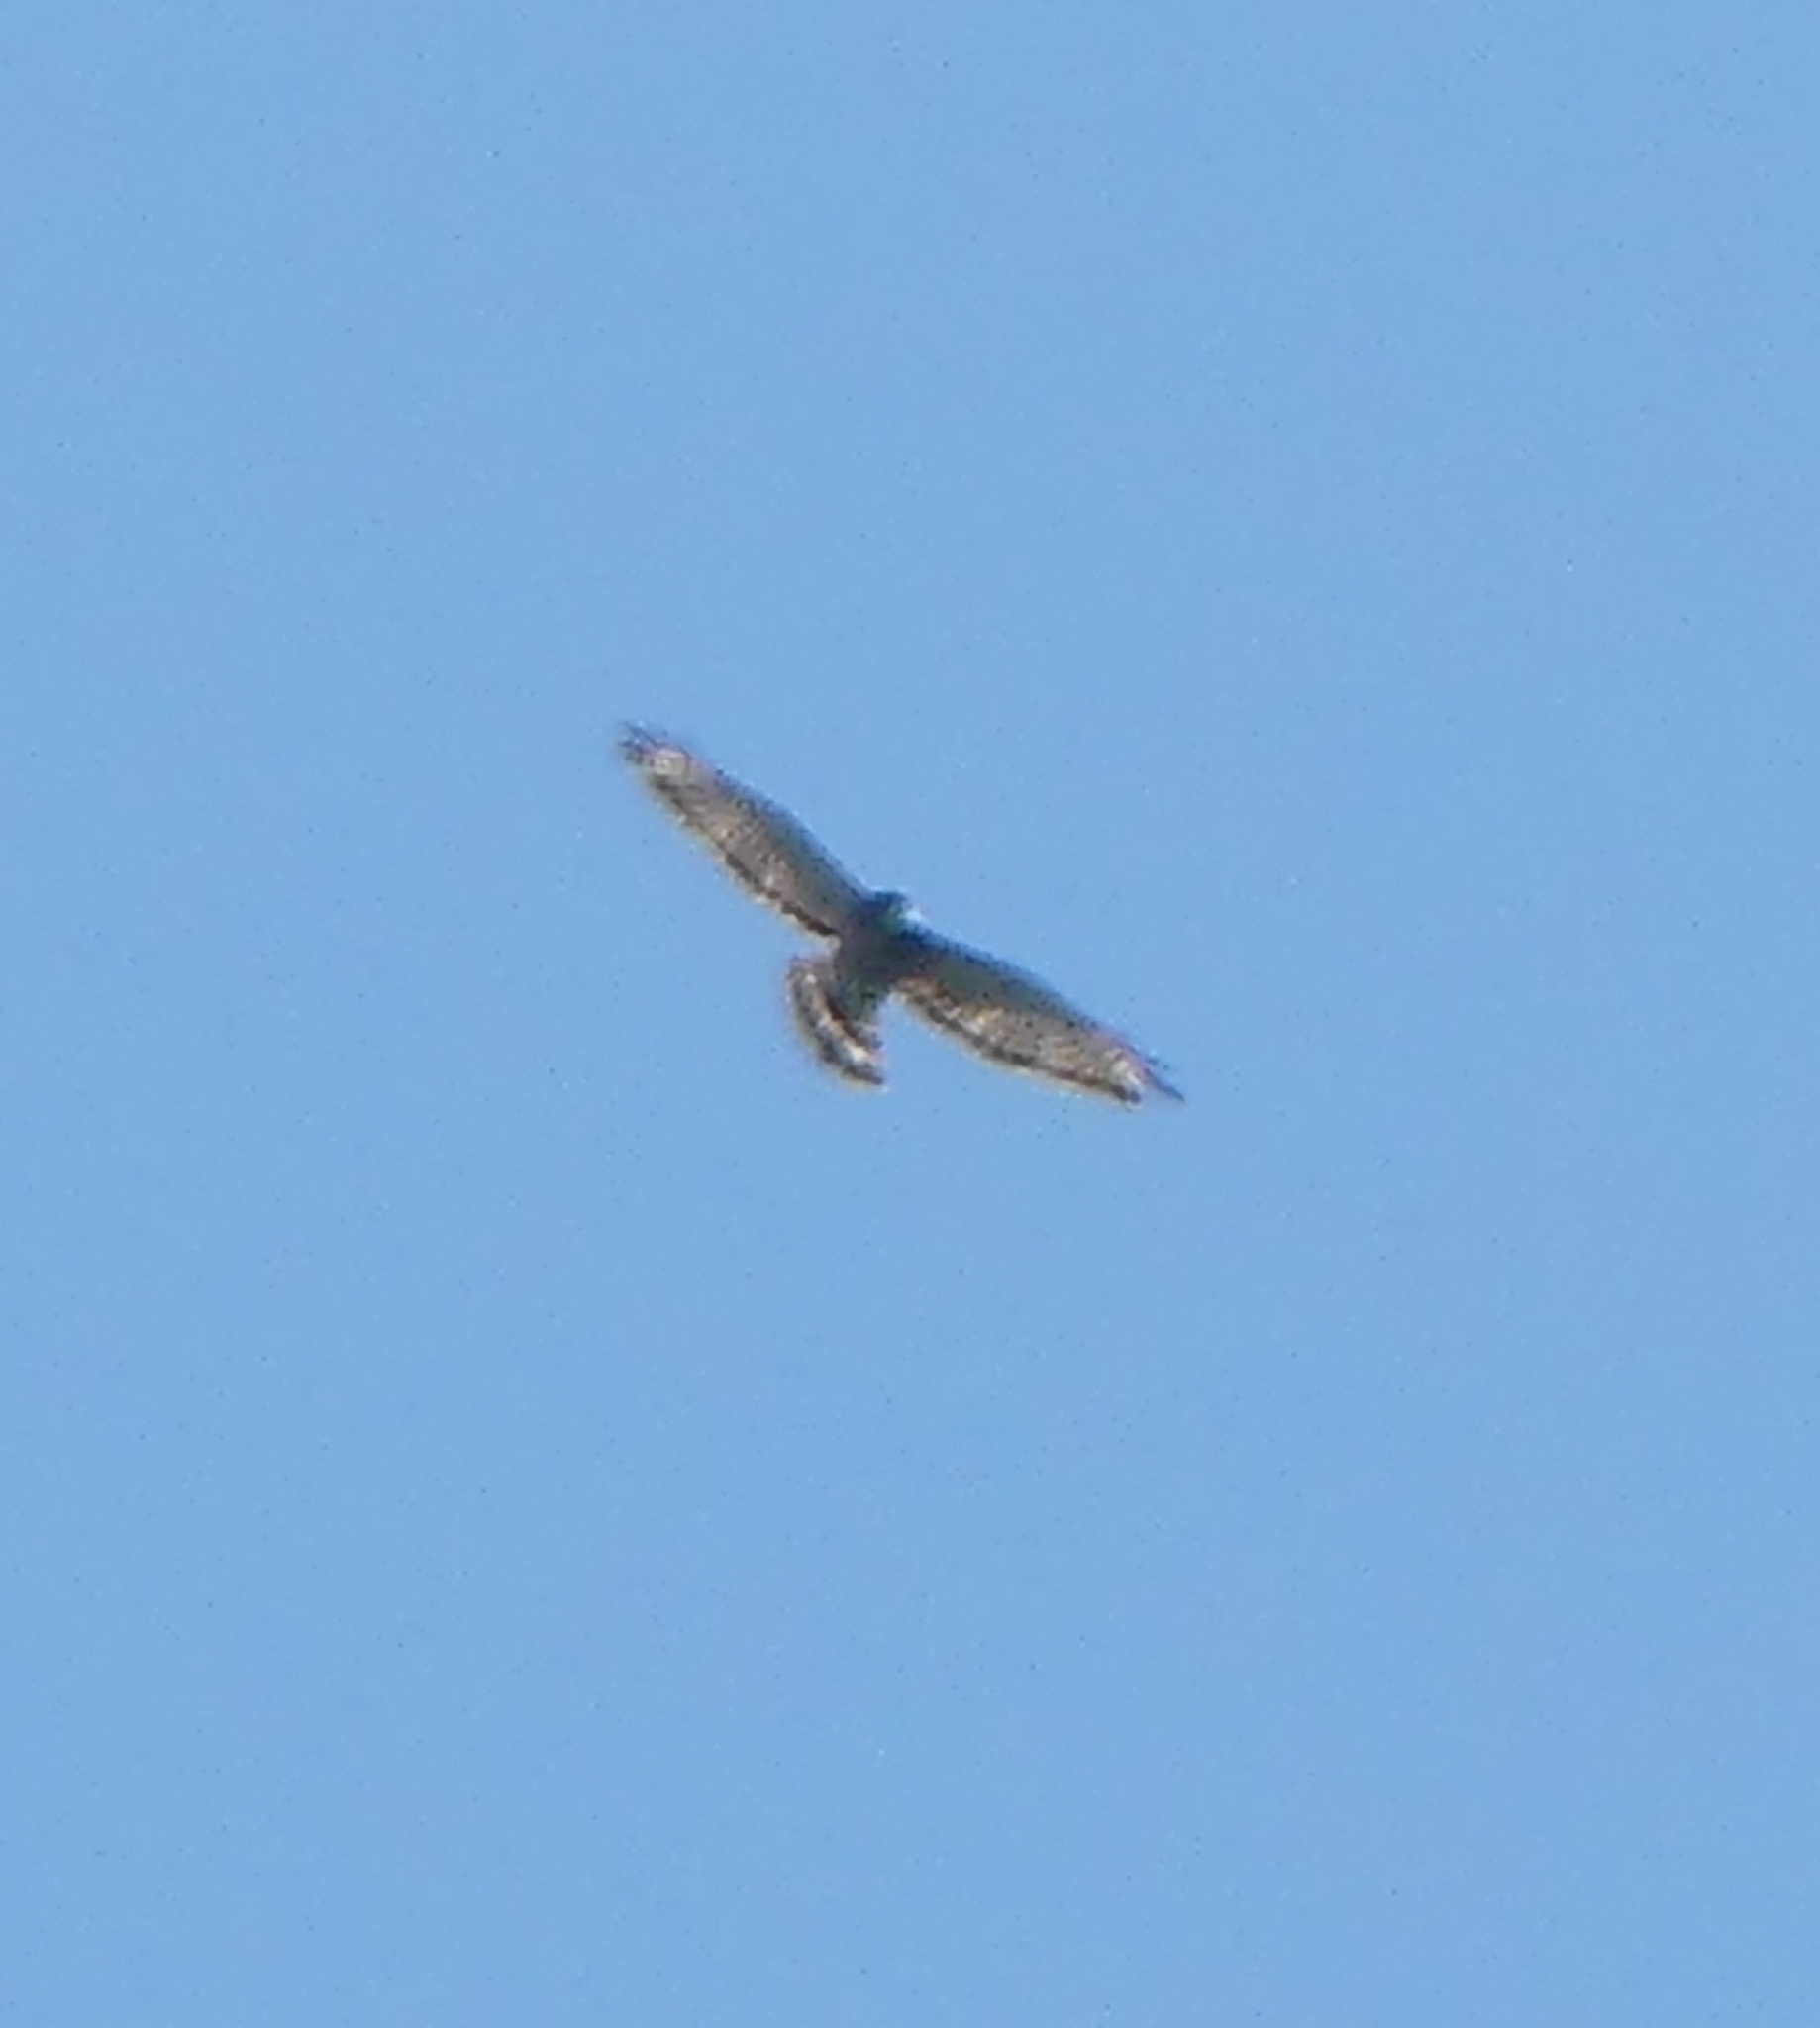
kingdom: Animalia
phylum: Chordata
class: Aves
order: Accipitriformes
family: Accipitridae
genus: Buteo
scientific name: Buteo platypterus
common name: Broad-winged hawk
